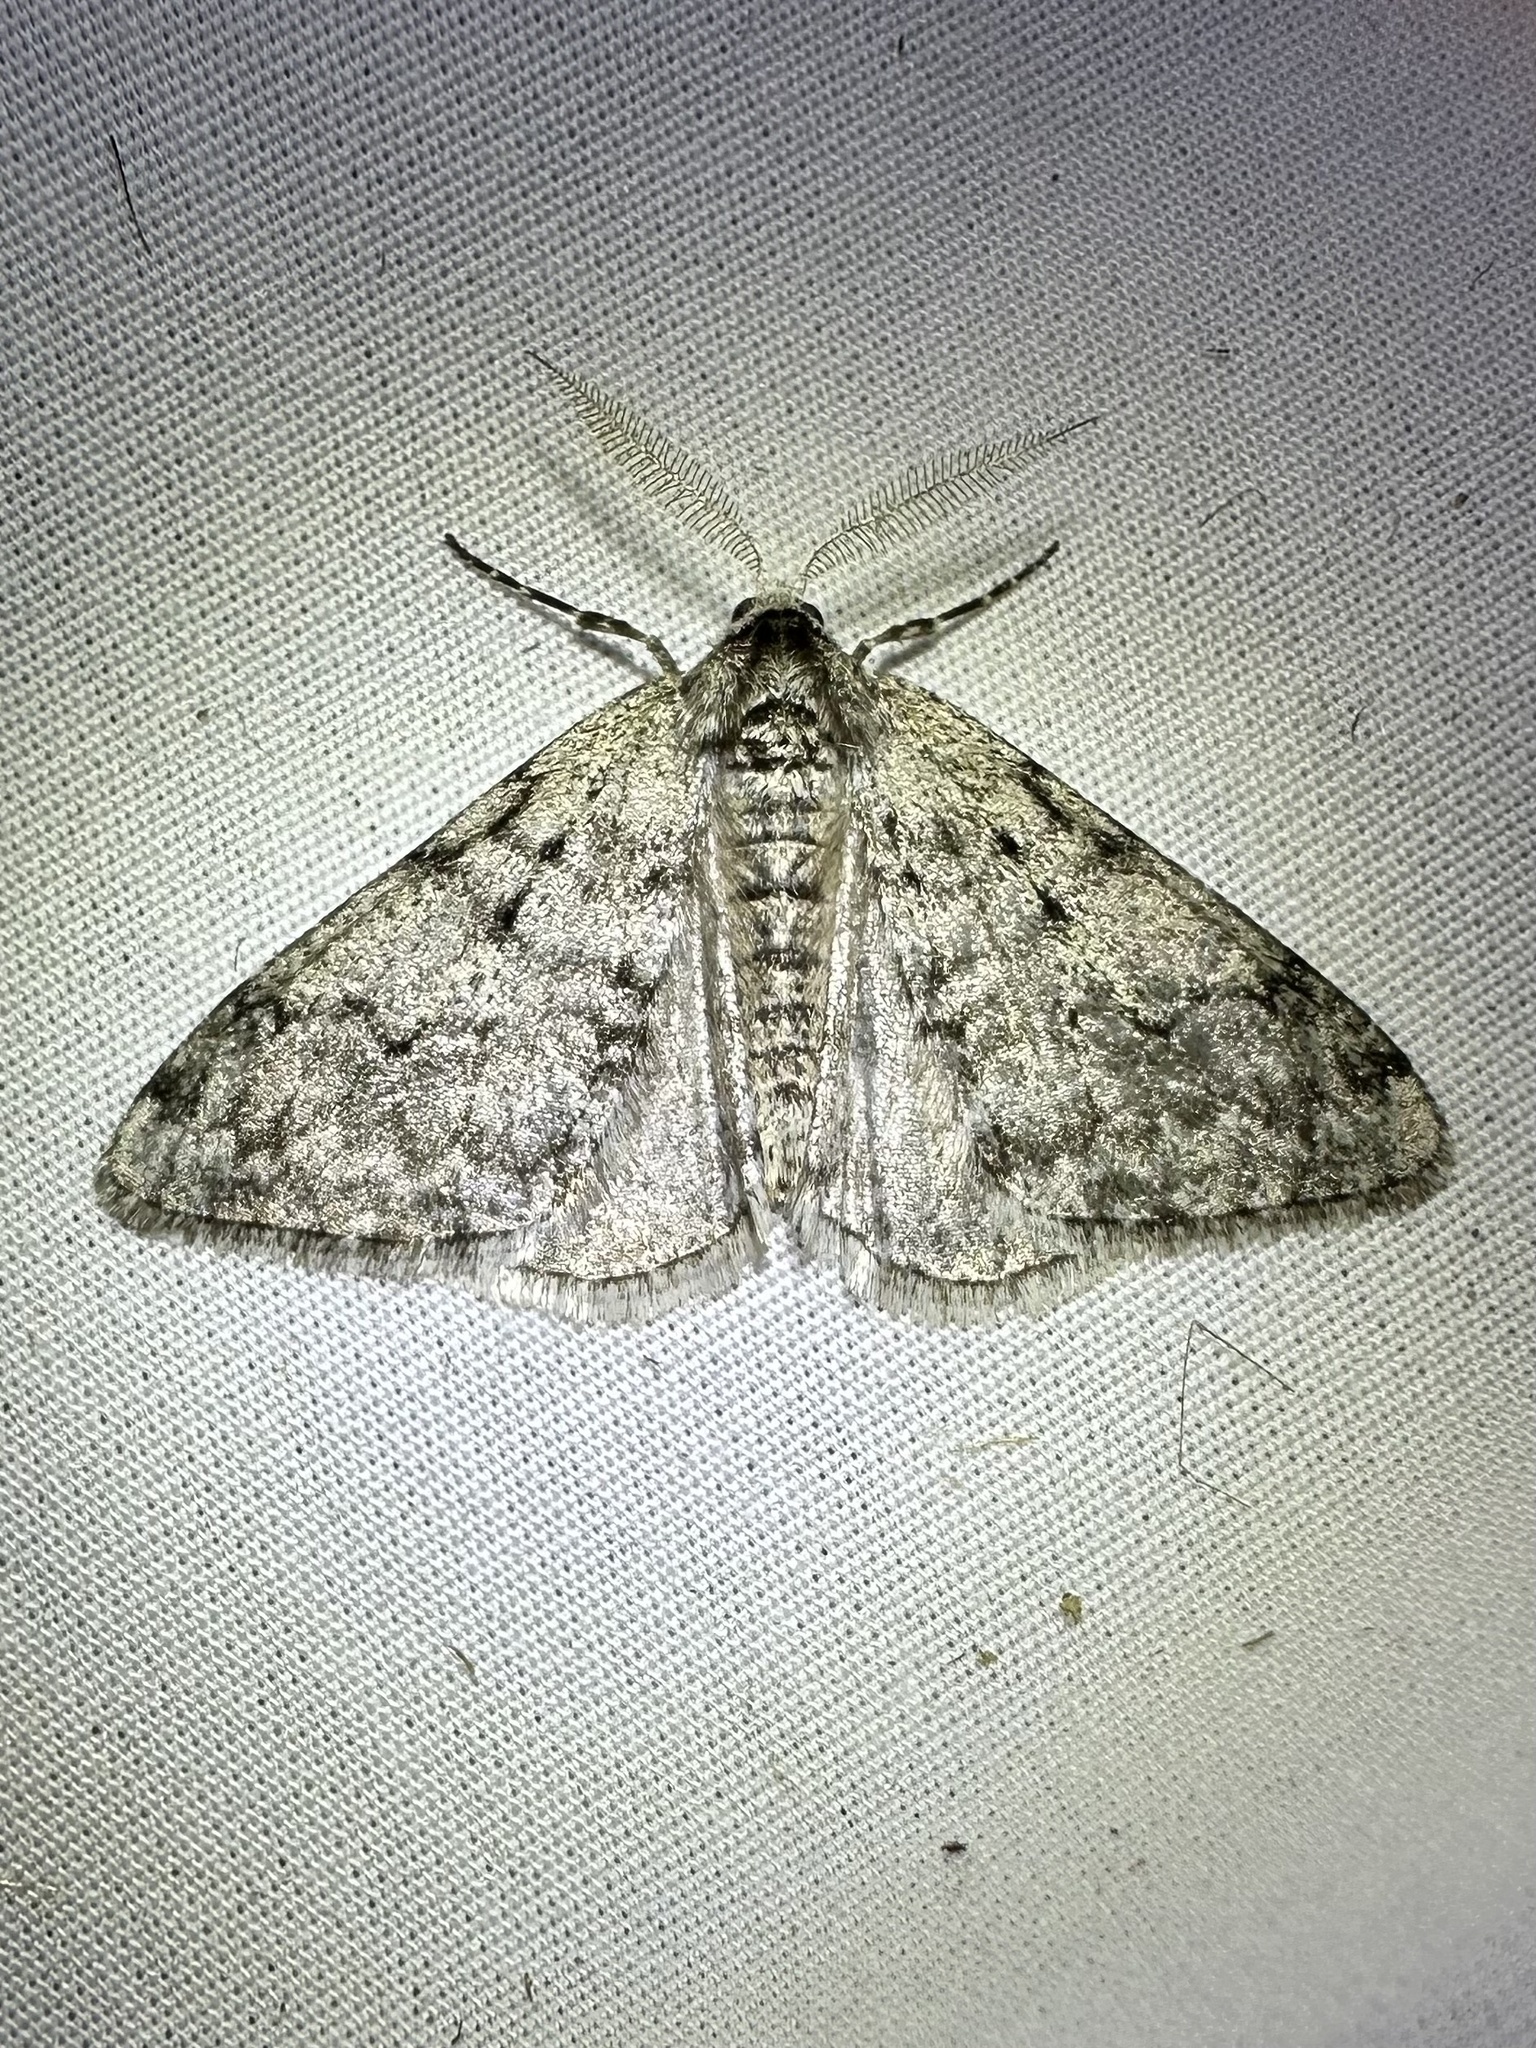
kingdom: Animalia
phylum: Arthropoda
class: Insecta
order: Lepidoptera
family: Geometridae
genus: Phigalia
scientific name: Phigalia strigataria
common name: Small phigalia
